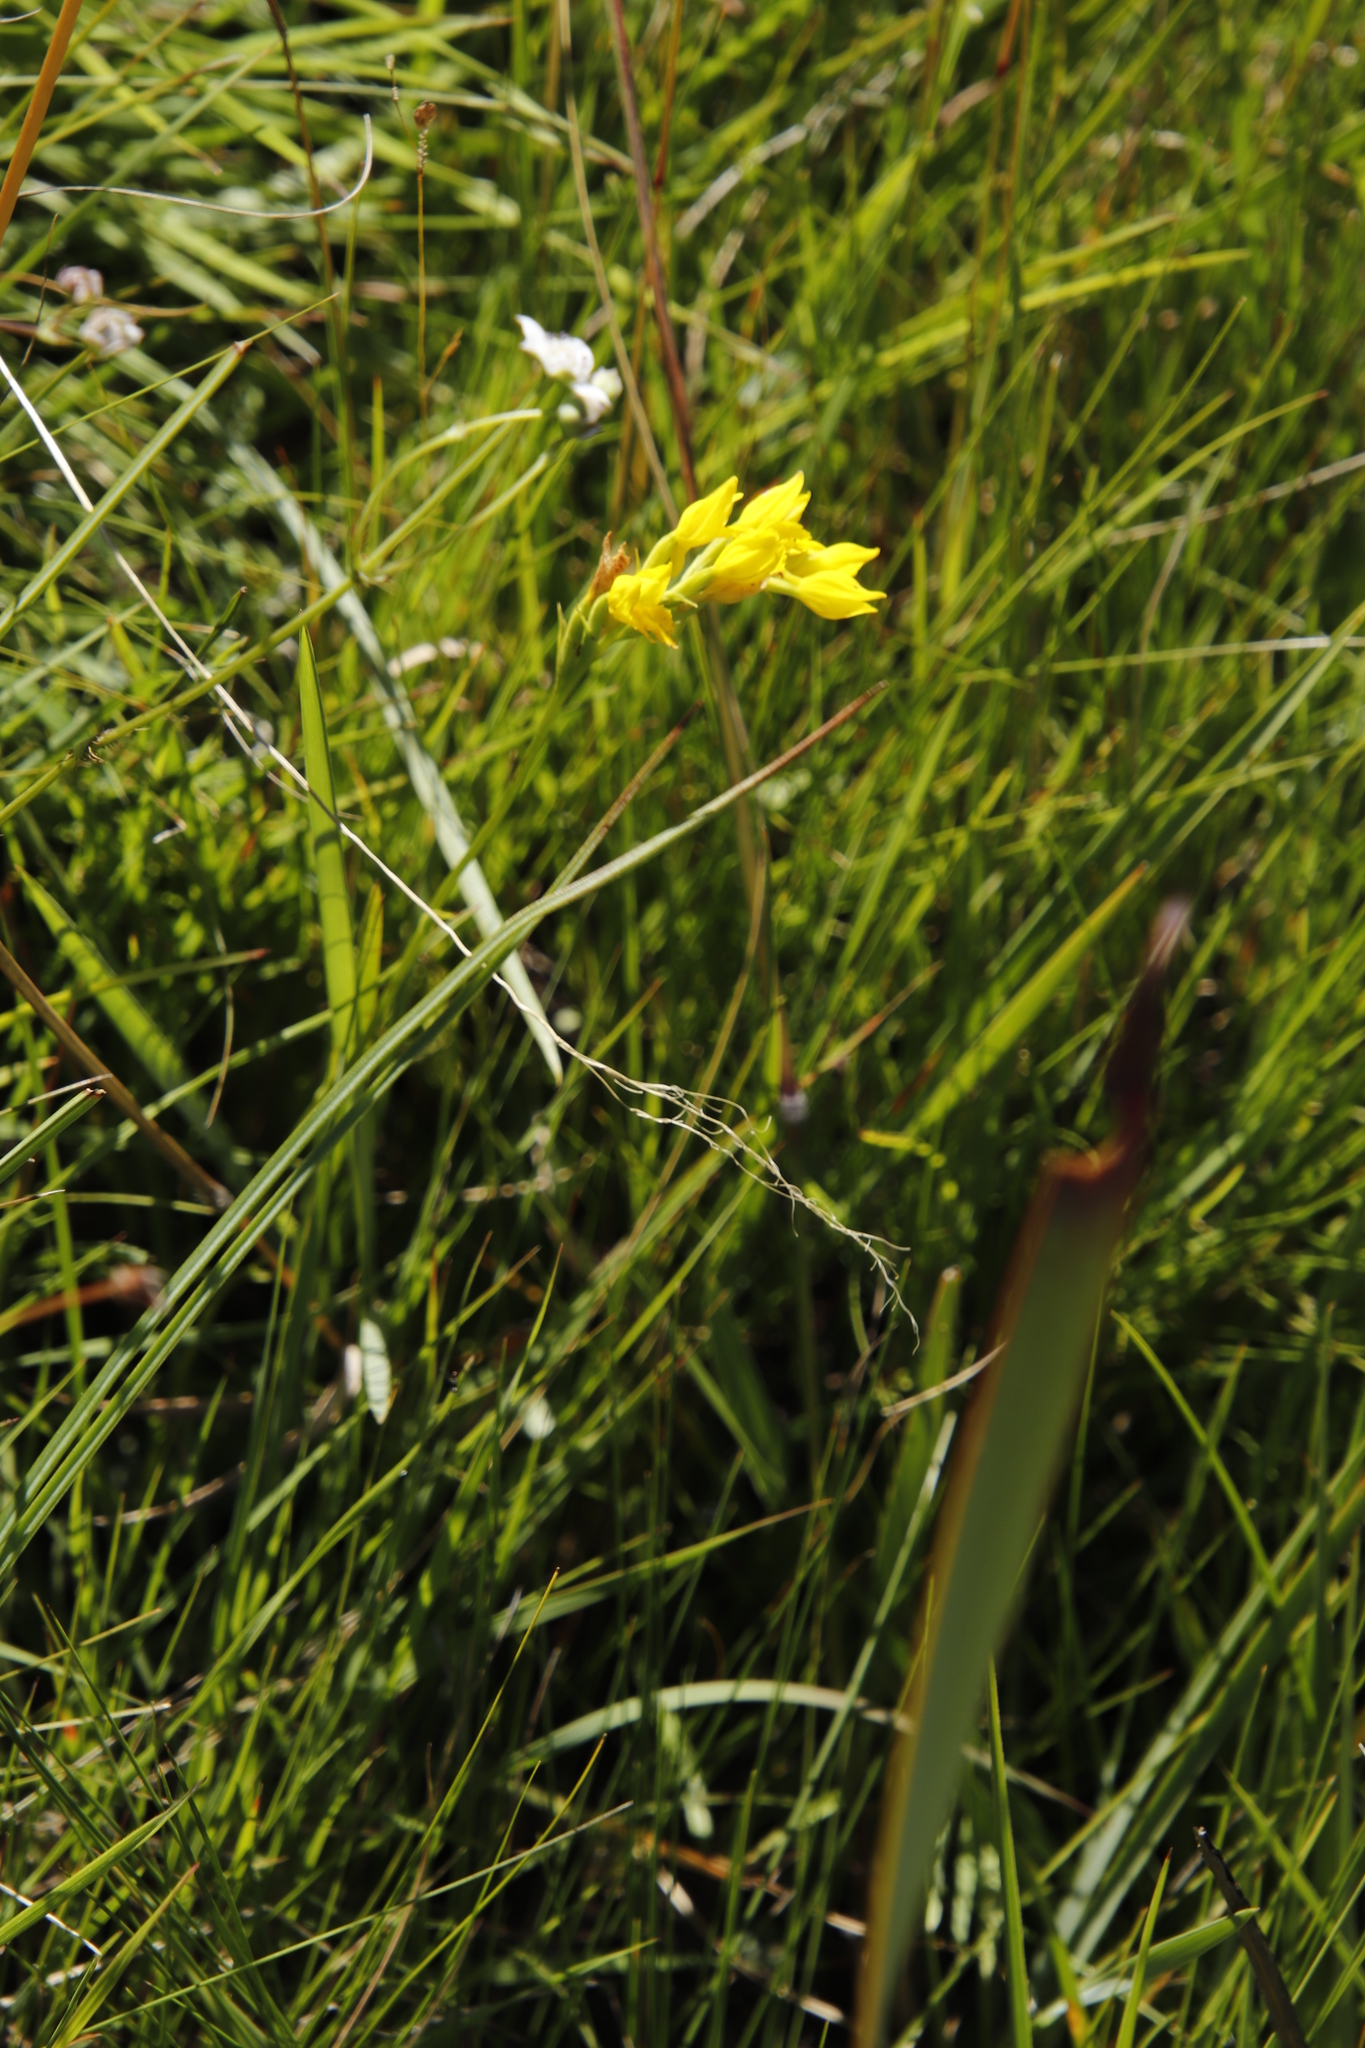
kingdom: Plantae
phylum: Tracheophyta
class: Liliopsida
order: Asparagales
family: Orchidaceae
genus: Schizochilus
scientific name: Schizochilus zeyheri
